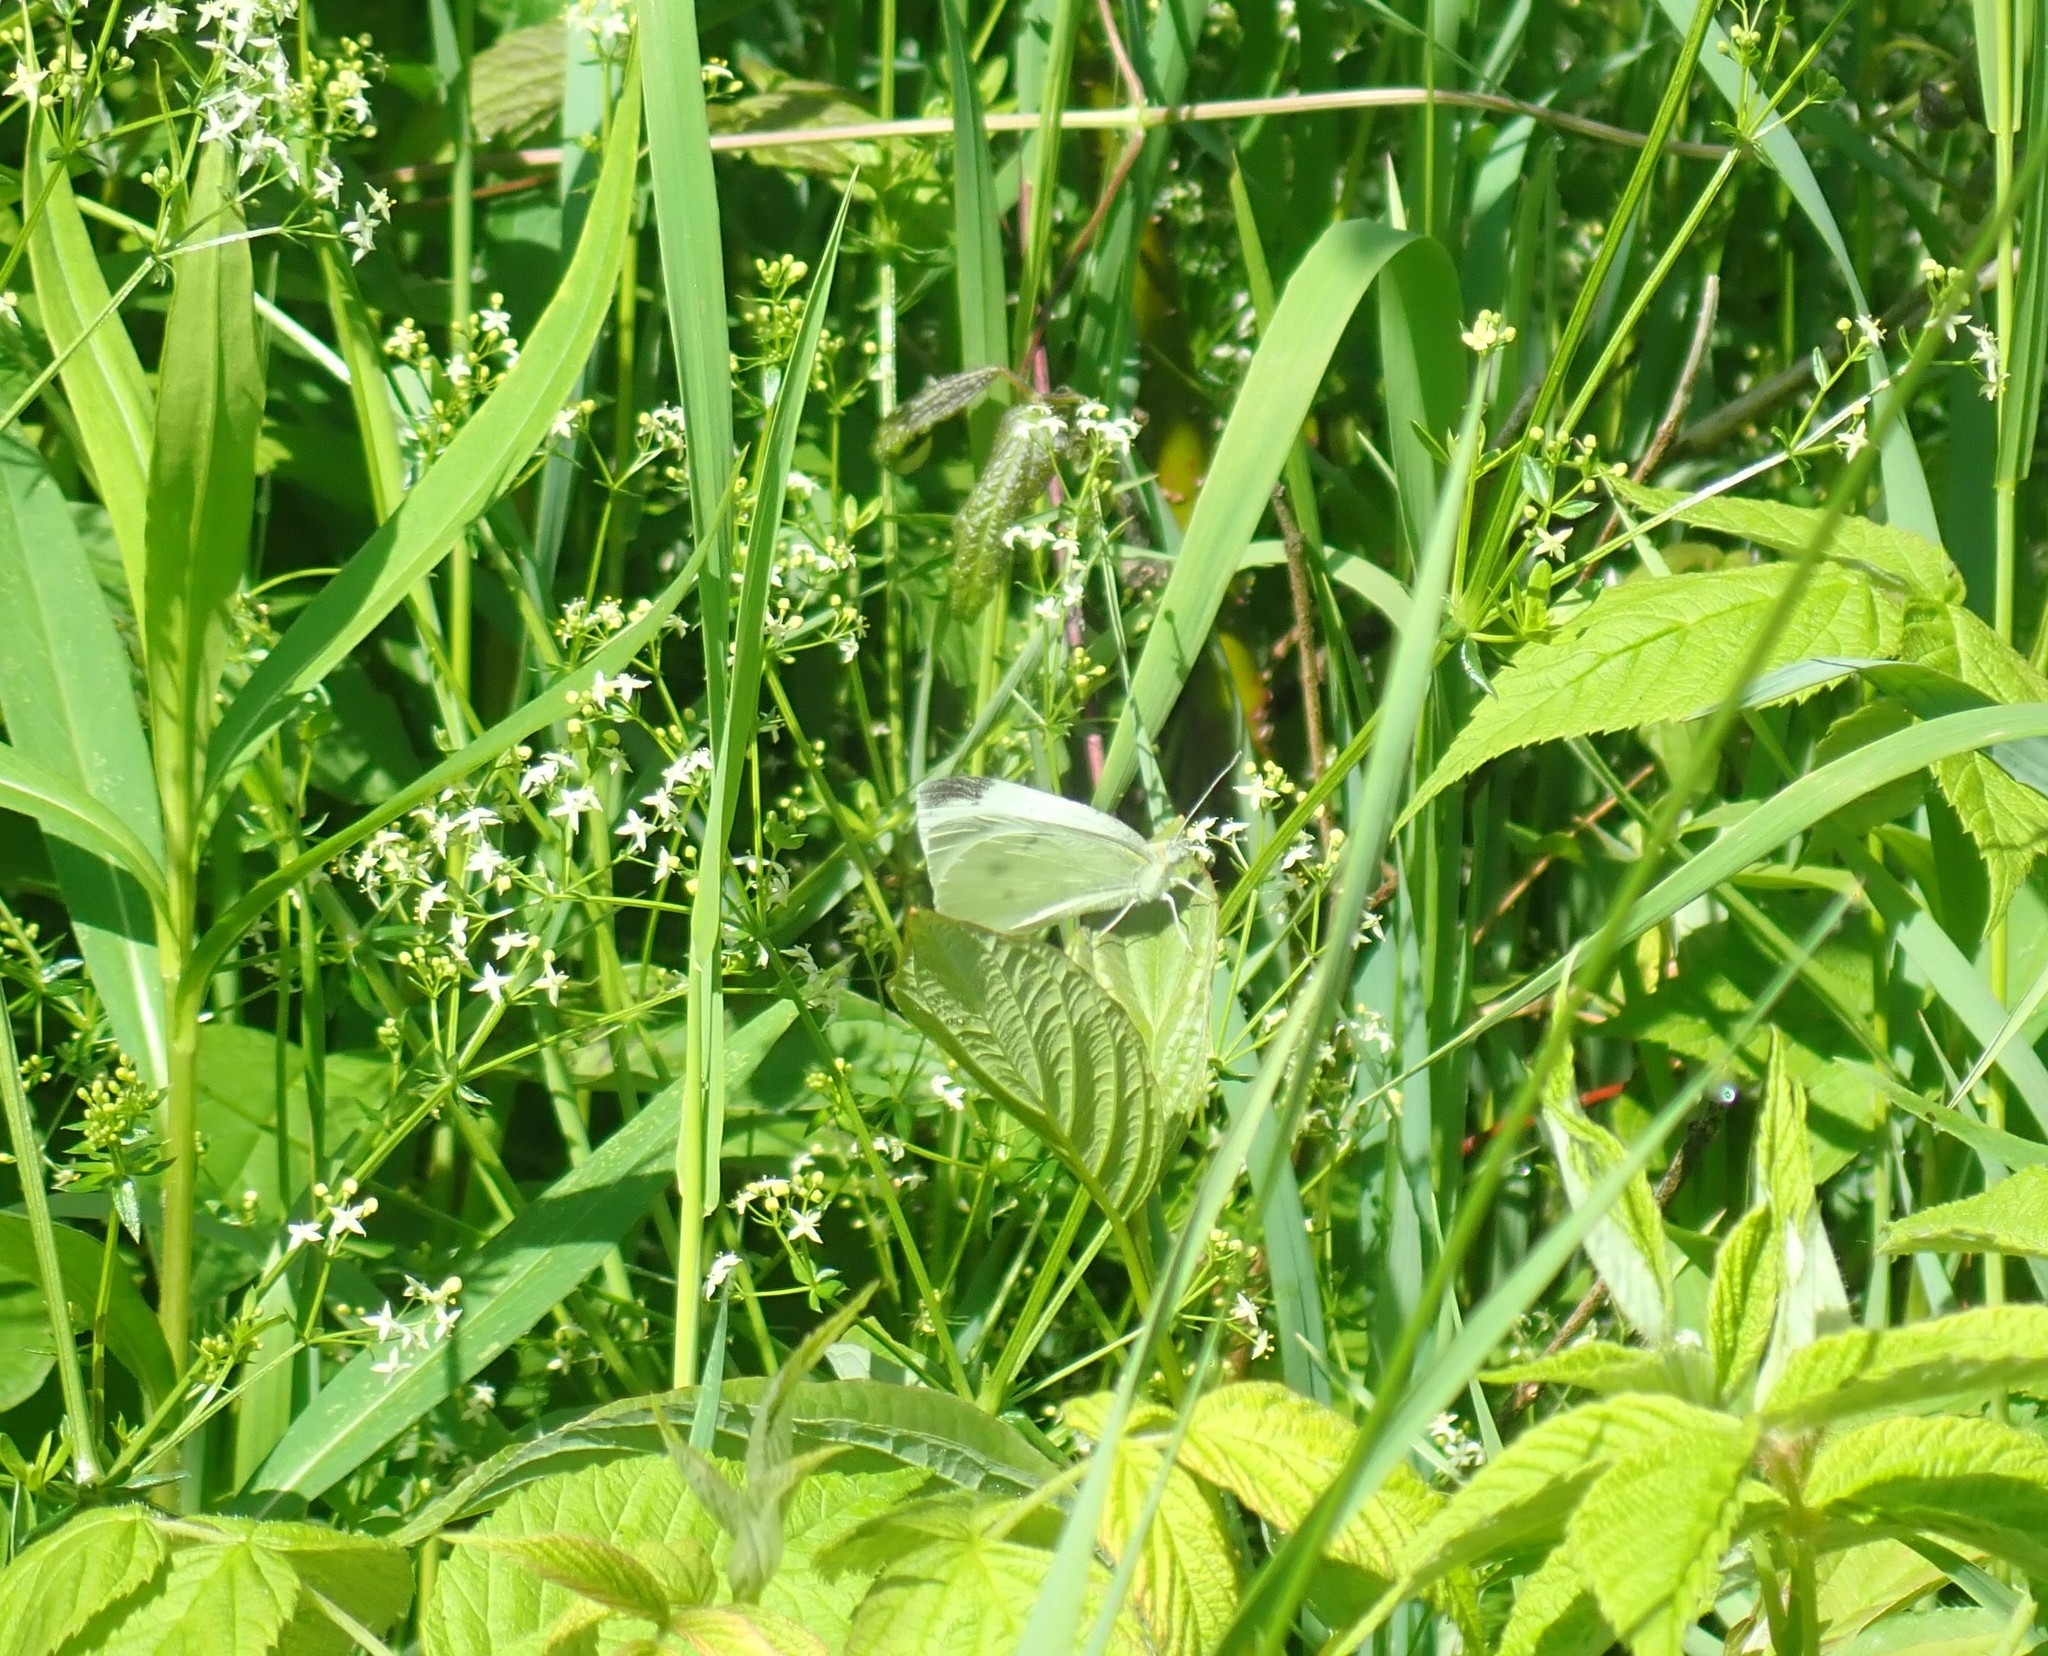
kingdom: Animalia
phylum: Arthropoda
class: Insecta
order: Lepidoptera
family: Pieridae
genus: Pieris
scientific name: Pieris rapae
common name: Small white
